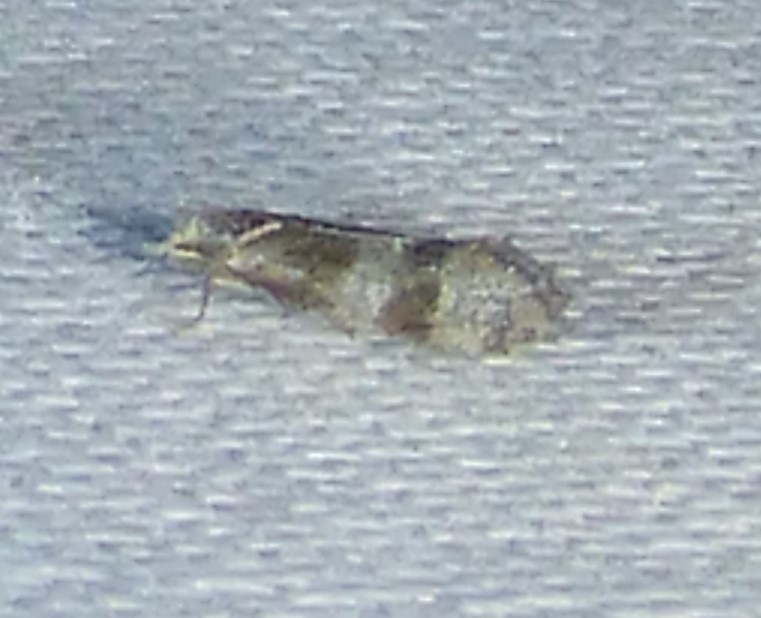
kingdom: Animalia
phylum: Arthropoda
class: Insecta
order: Lepidoptera
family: Tortricidae
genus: Corticivora
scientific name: Corticivora parva
